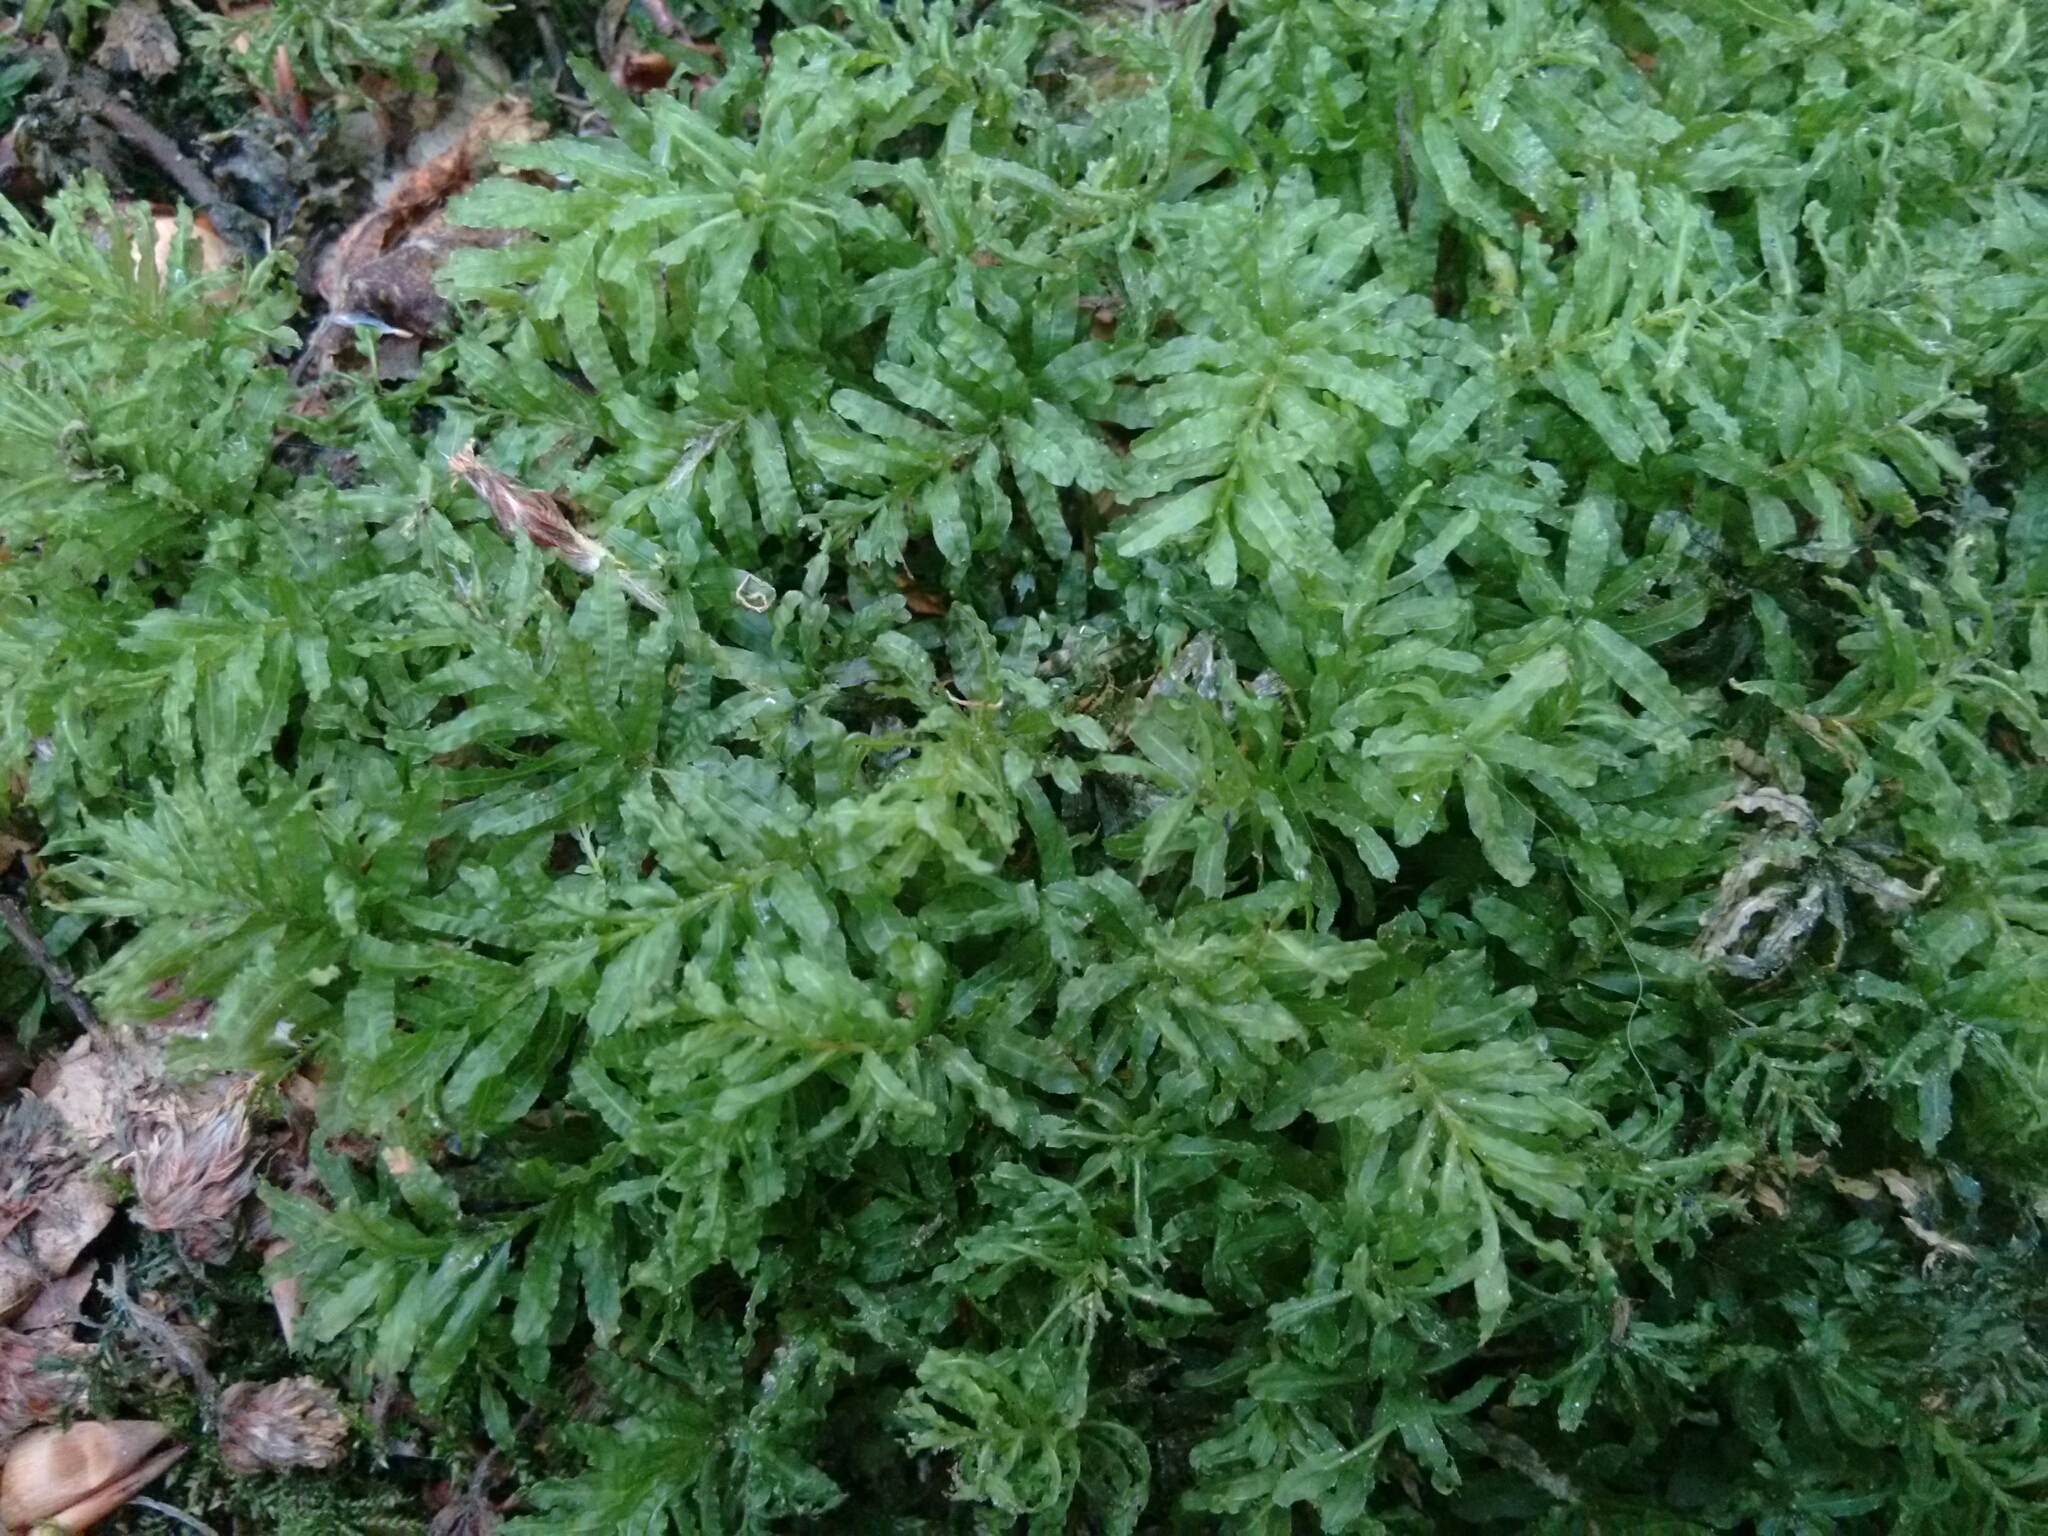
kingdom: Plantae
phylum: Bryophyta
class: Bryopsida
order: Bryales
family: Mniaceae
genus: Plagiomnium
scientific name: Plagiomnium undulatum
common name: Hart's-tongue thyme-moss
